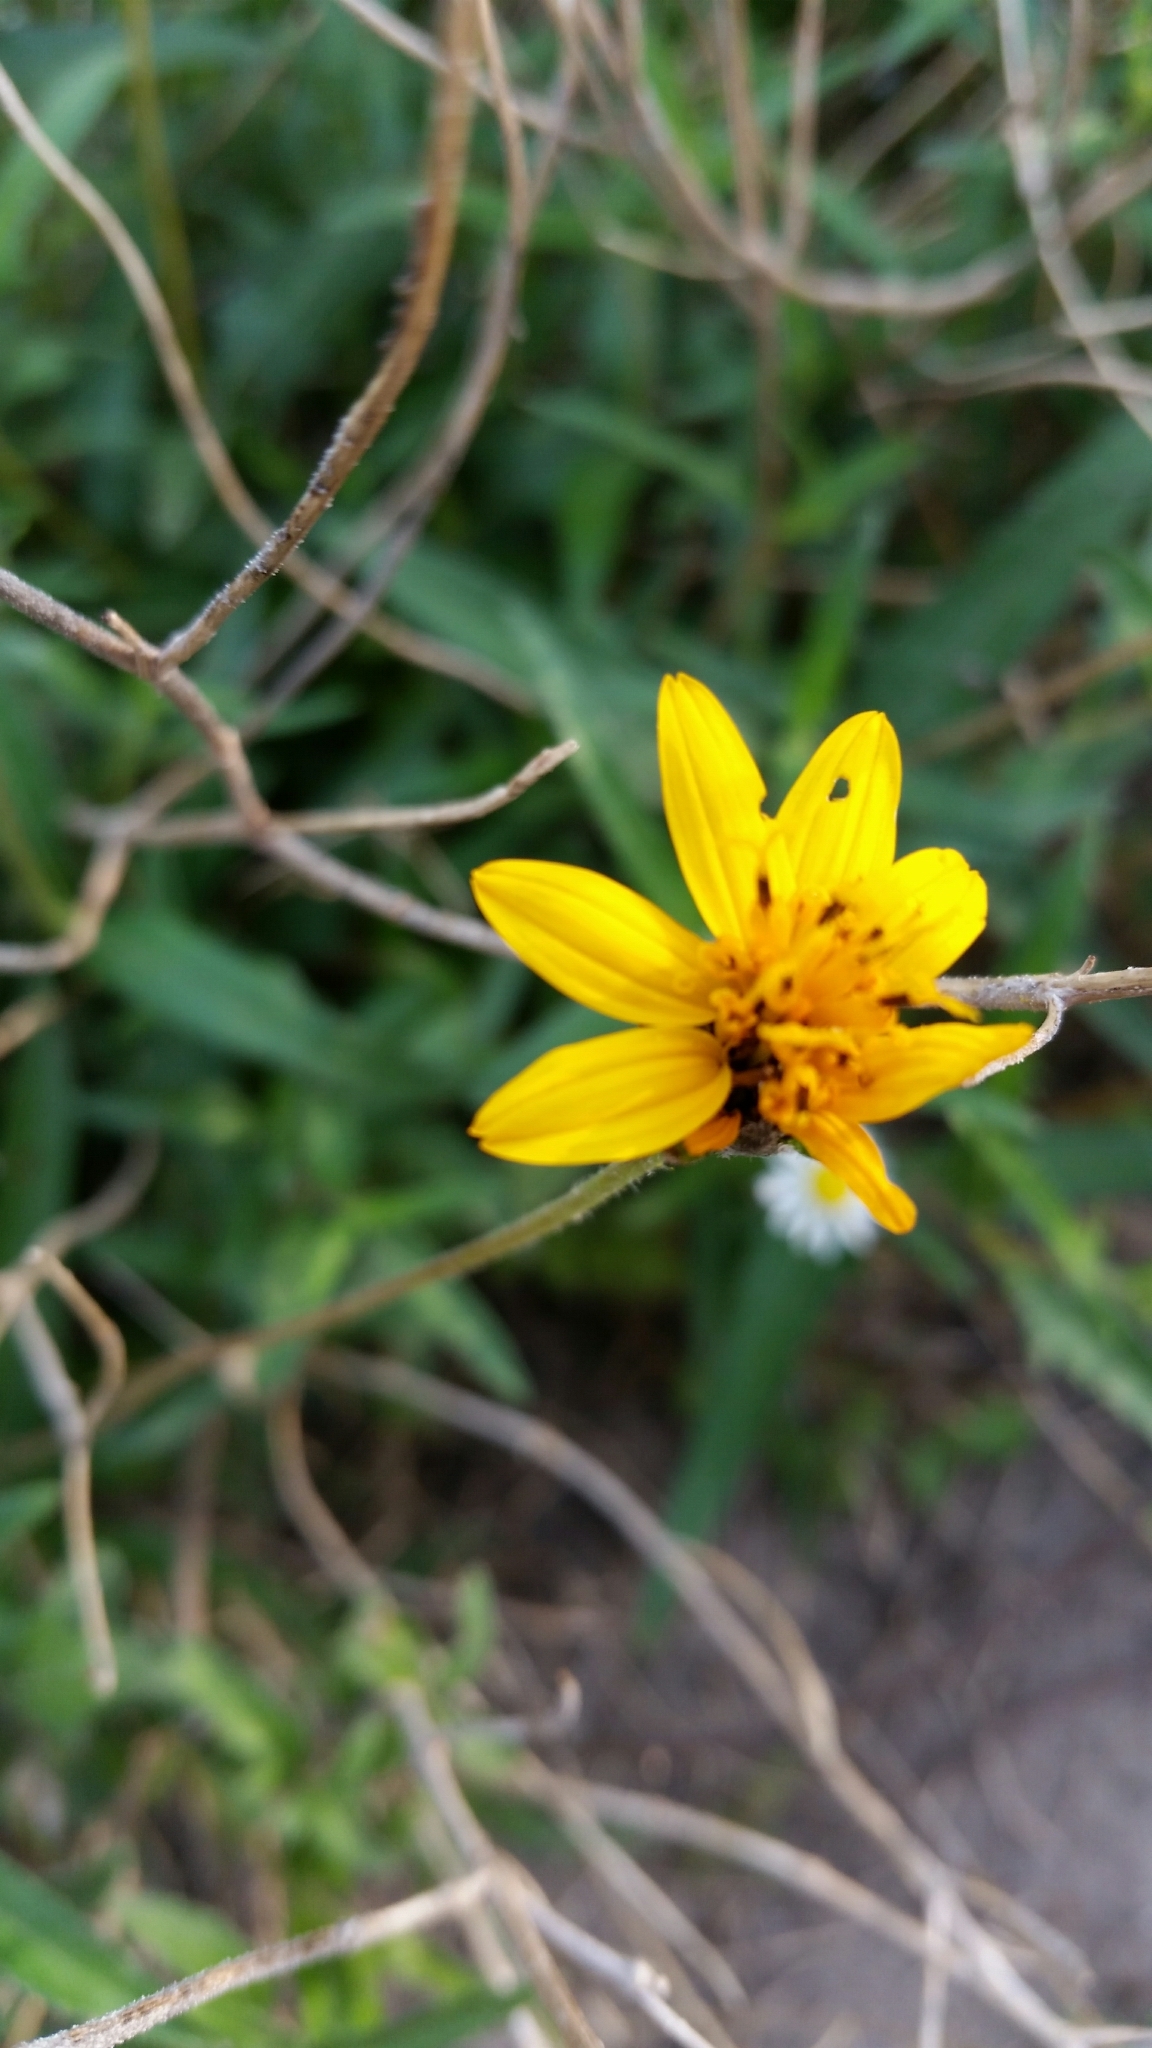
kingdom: Plantae
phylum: Tracheophyta
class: Magnoliopsida
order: Asterales
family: Asteraceae
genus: Wedelia
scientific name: Wedelia acapulcensis
